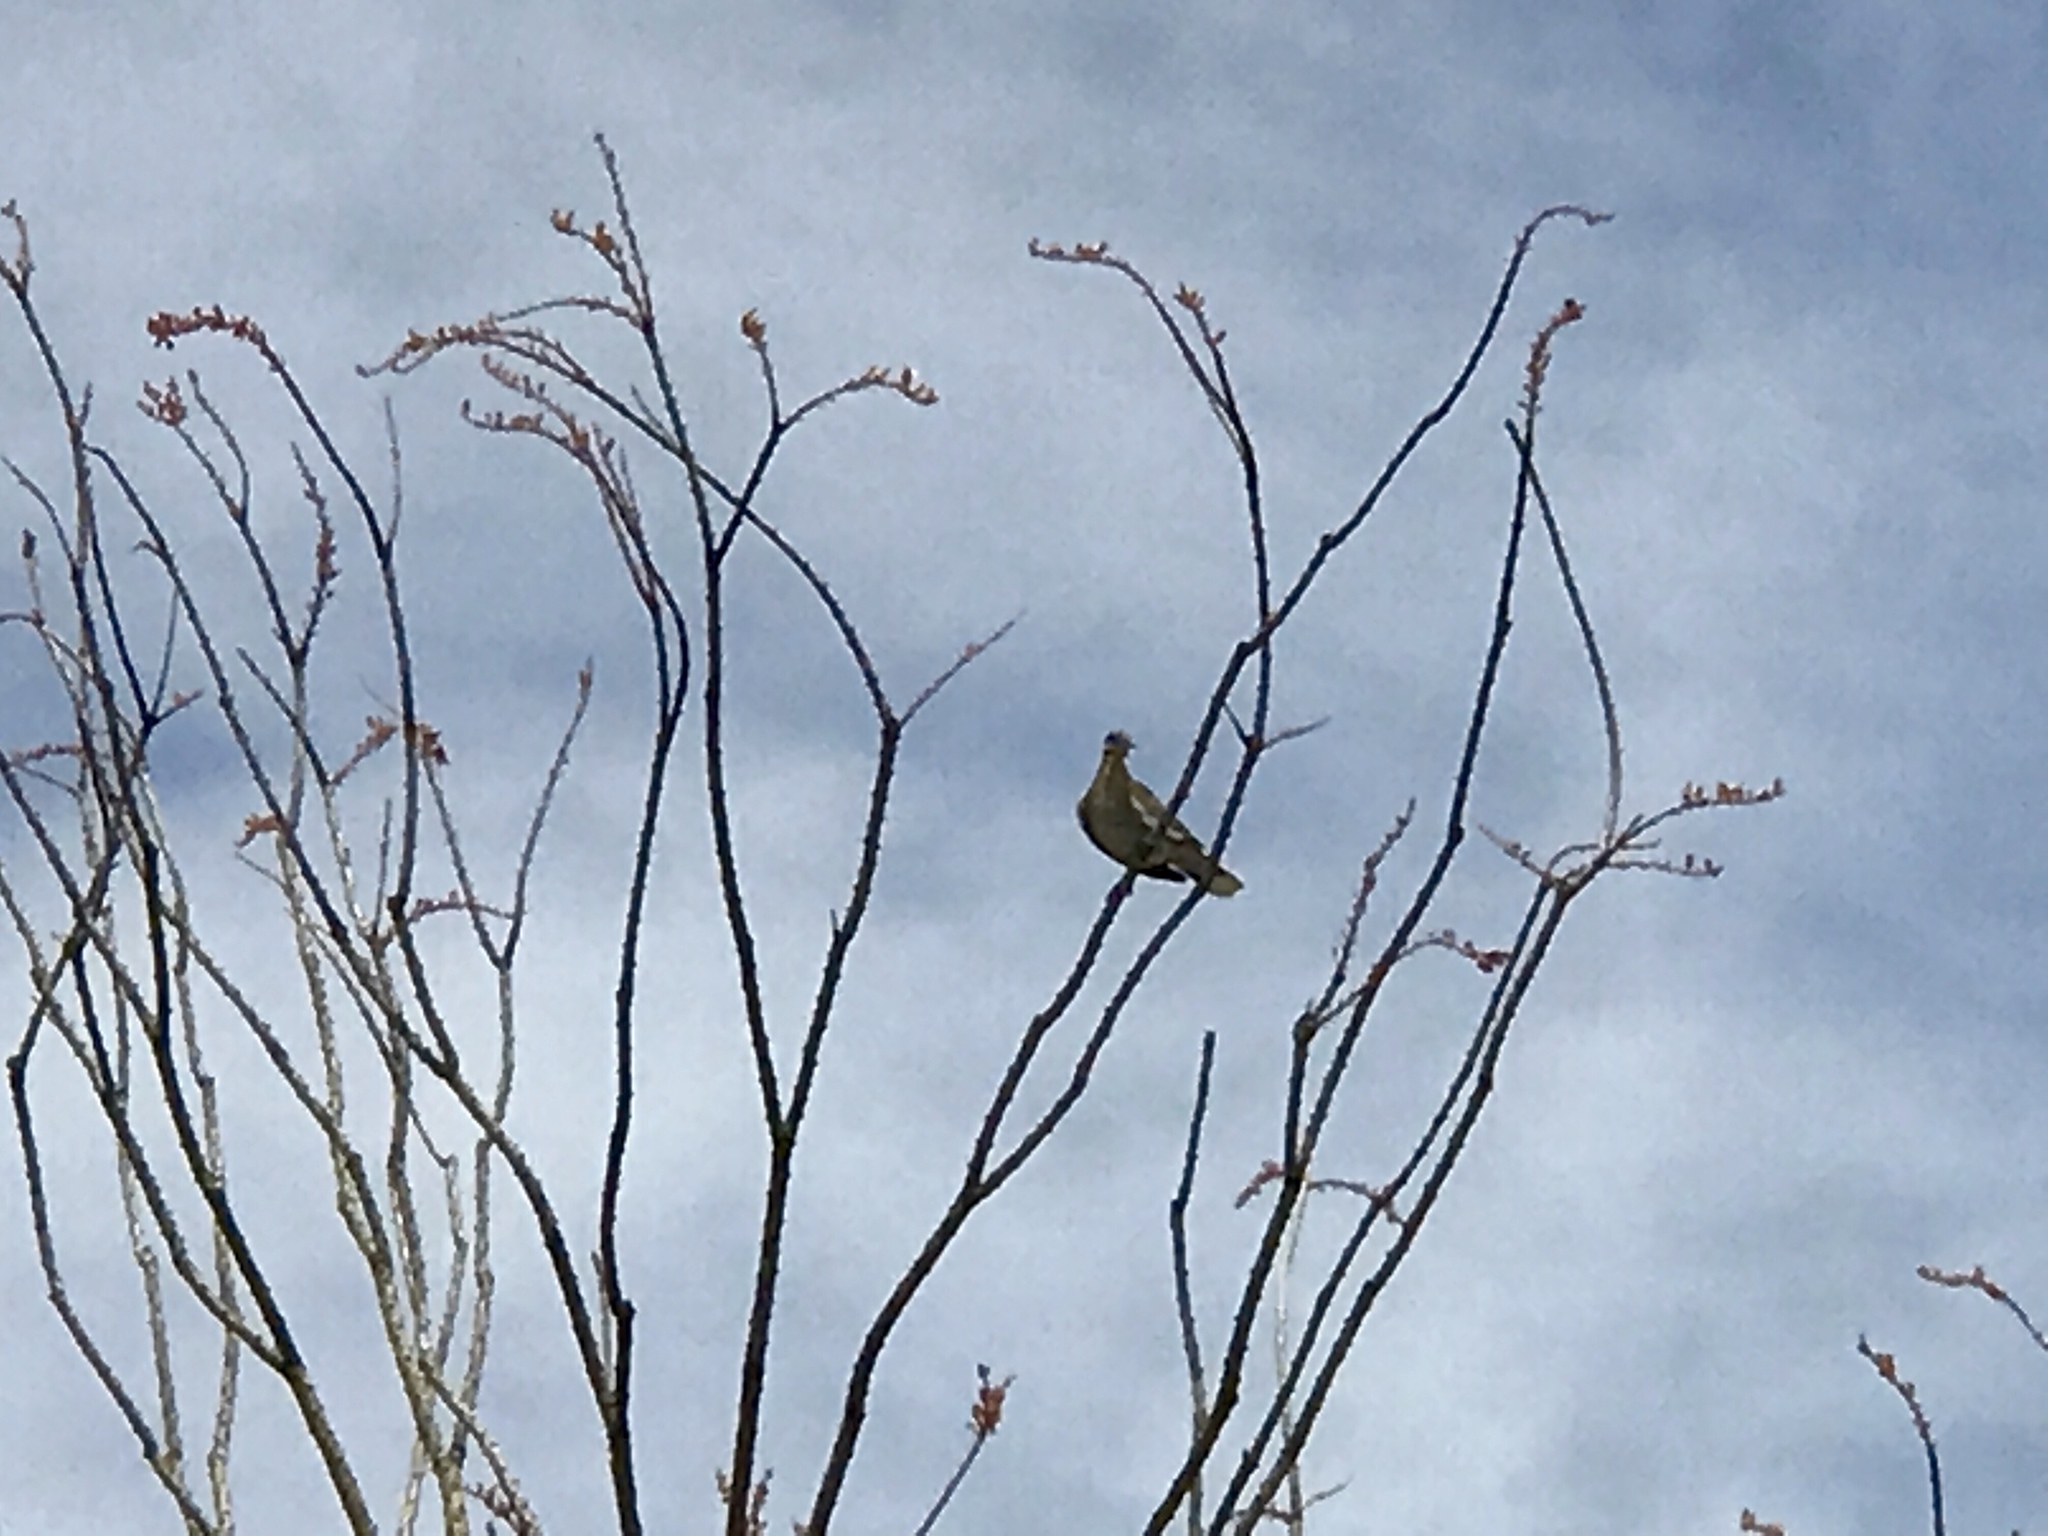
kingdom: Animalia
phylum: Chordata
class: Aves
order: Columbiformes
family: Columbidae
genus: Zenaida
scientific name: Zenaida asiatica
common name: White-winged dove
